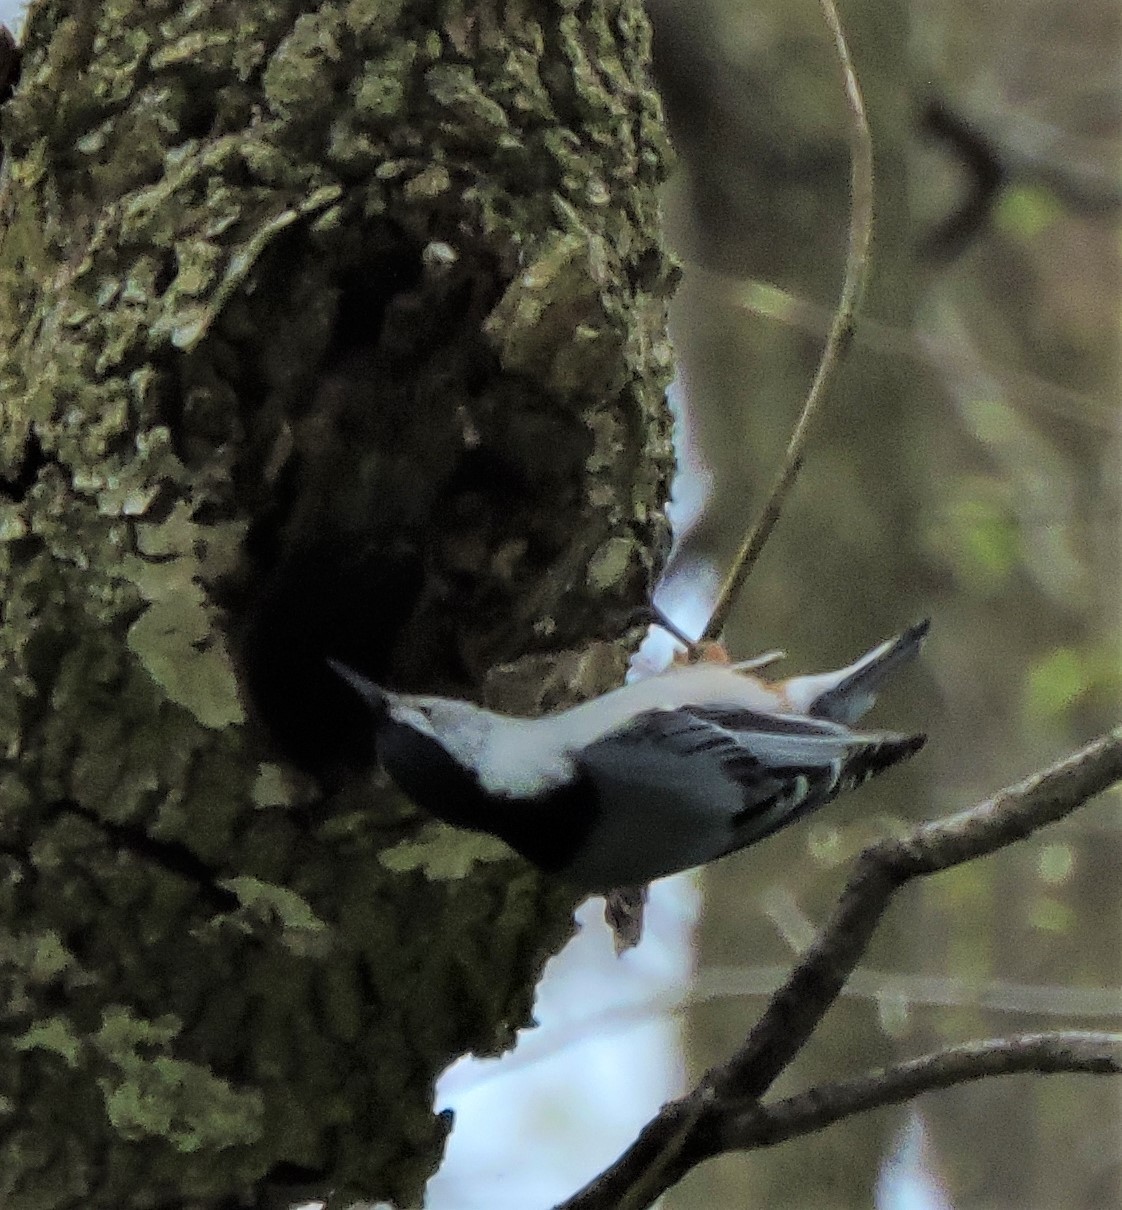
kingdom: Animalia
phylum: Chordata
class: Aves
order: Passeriformes
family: Sittidae
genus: Sitta
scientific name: Sitta carolinensis
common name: White-breasted nuthatch
